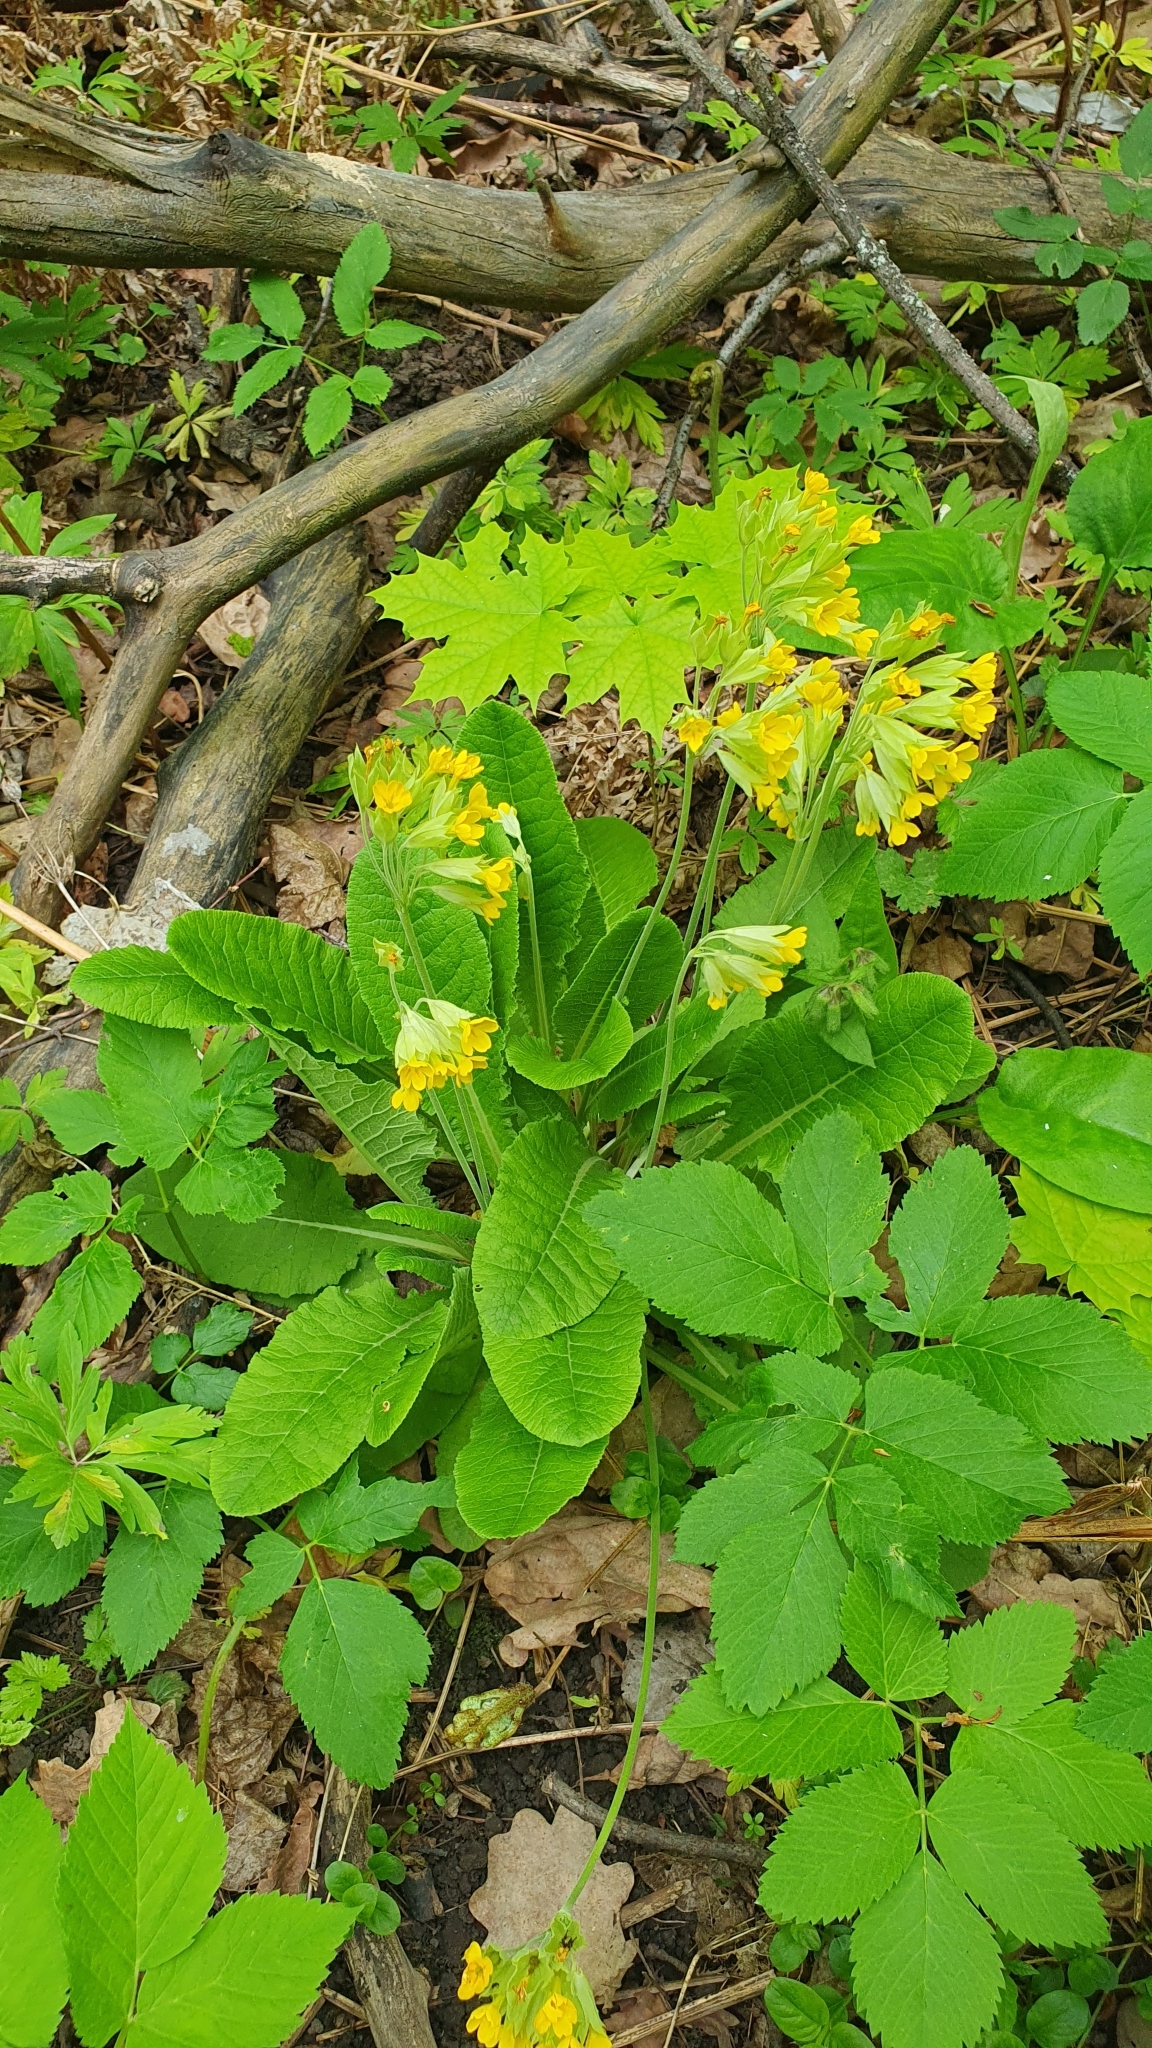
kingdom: Plantae
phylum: Tracheophyta
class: Magnoliopsida
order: Ericales
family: Primulaceae
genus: Primula
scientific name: Primula veris
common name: Cowslip
